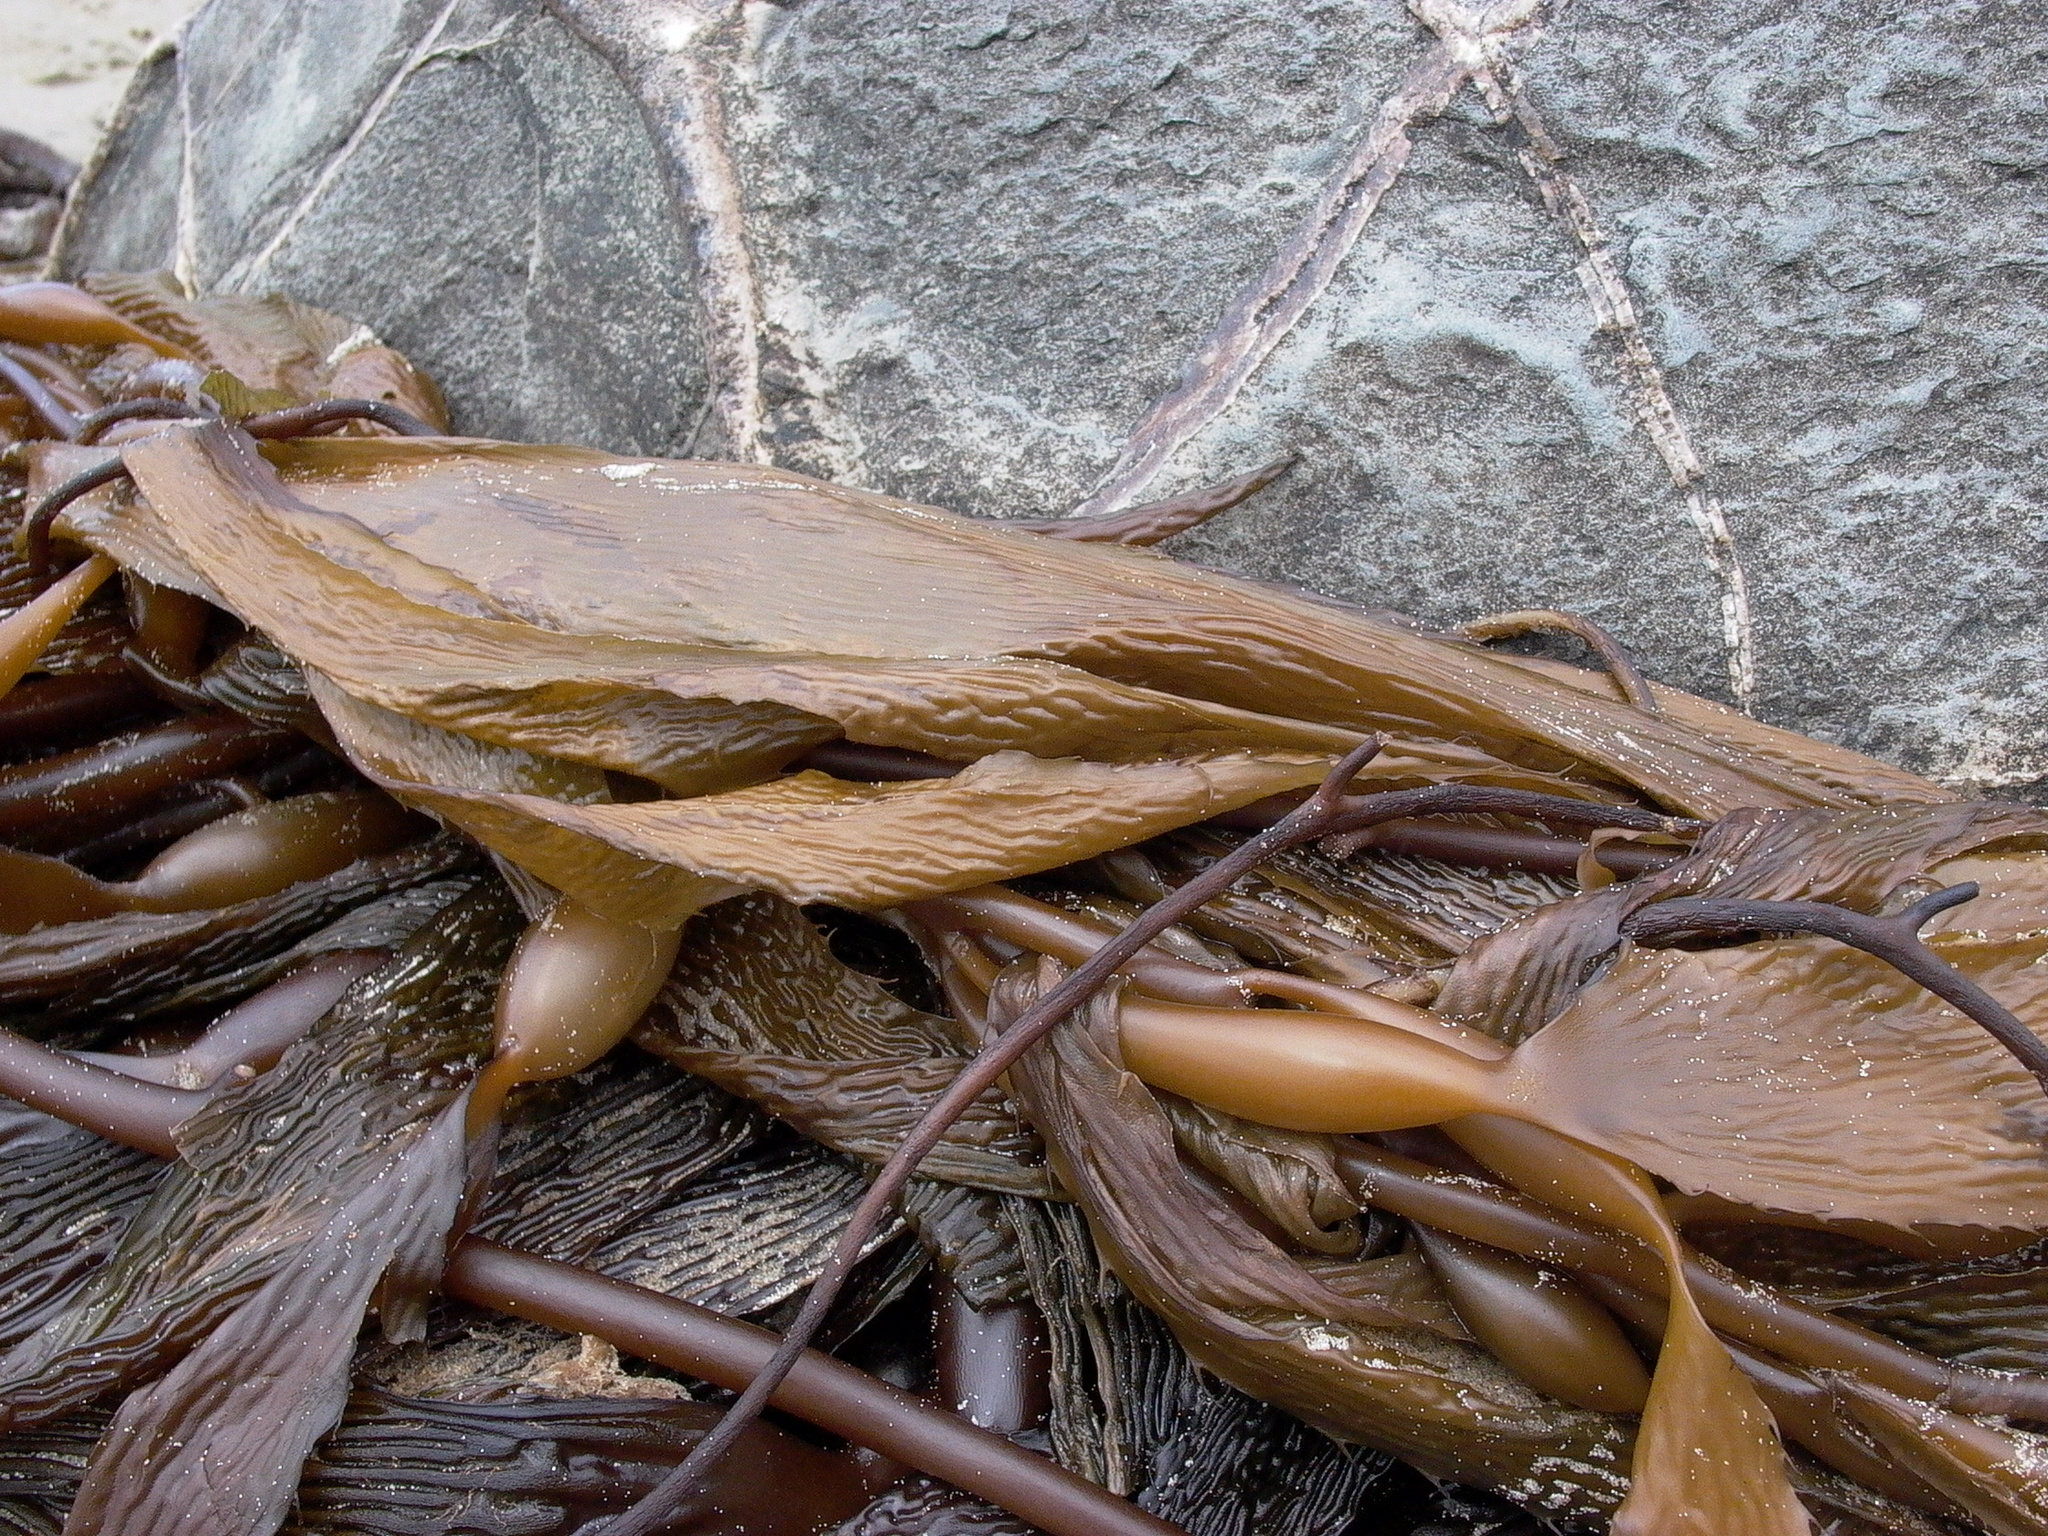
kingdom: Chromista
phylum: Ochrophyta
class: Phaeophyceae
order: Laminariales
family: Laminariaceae
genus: Macrocystis
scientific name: Macrocystis pyrifera
